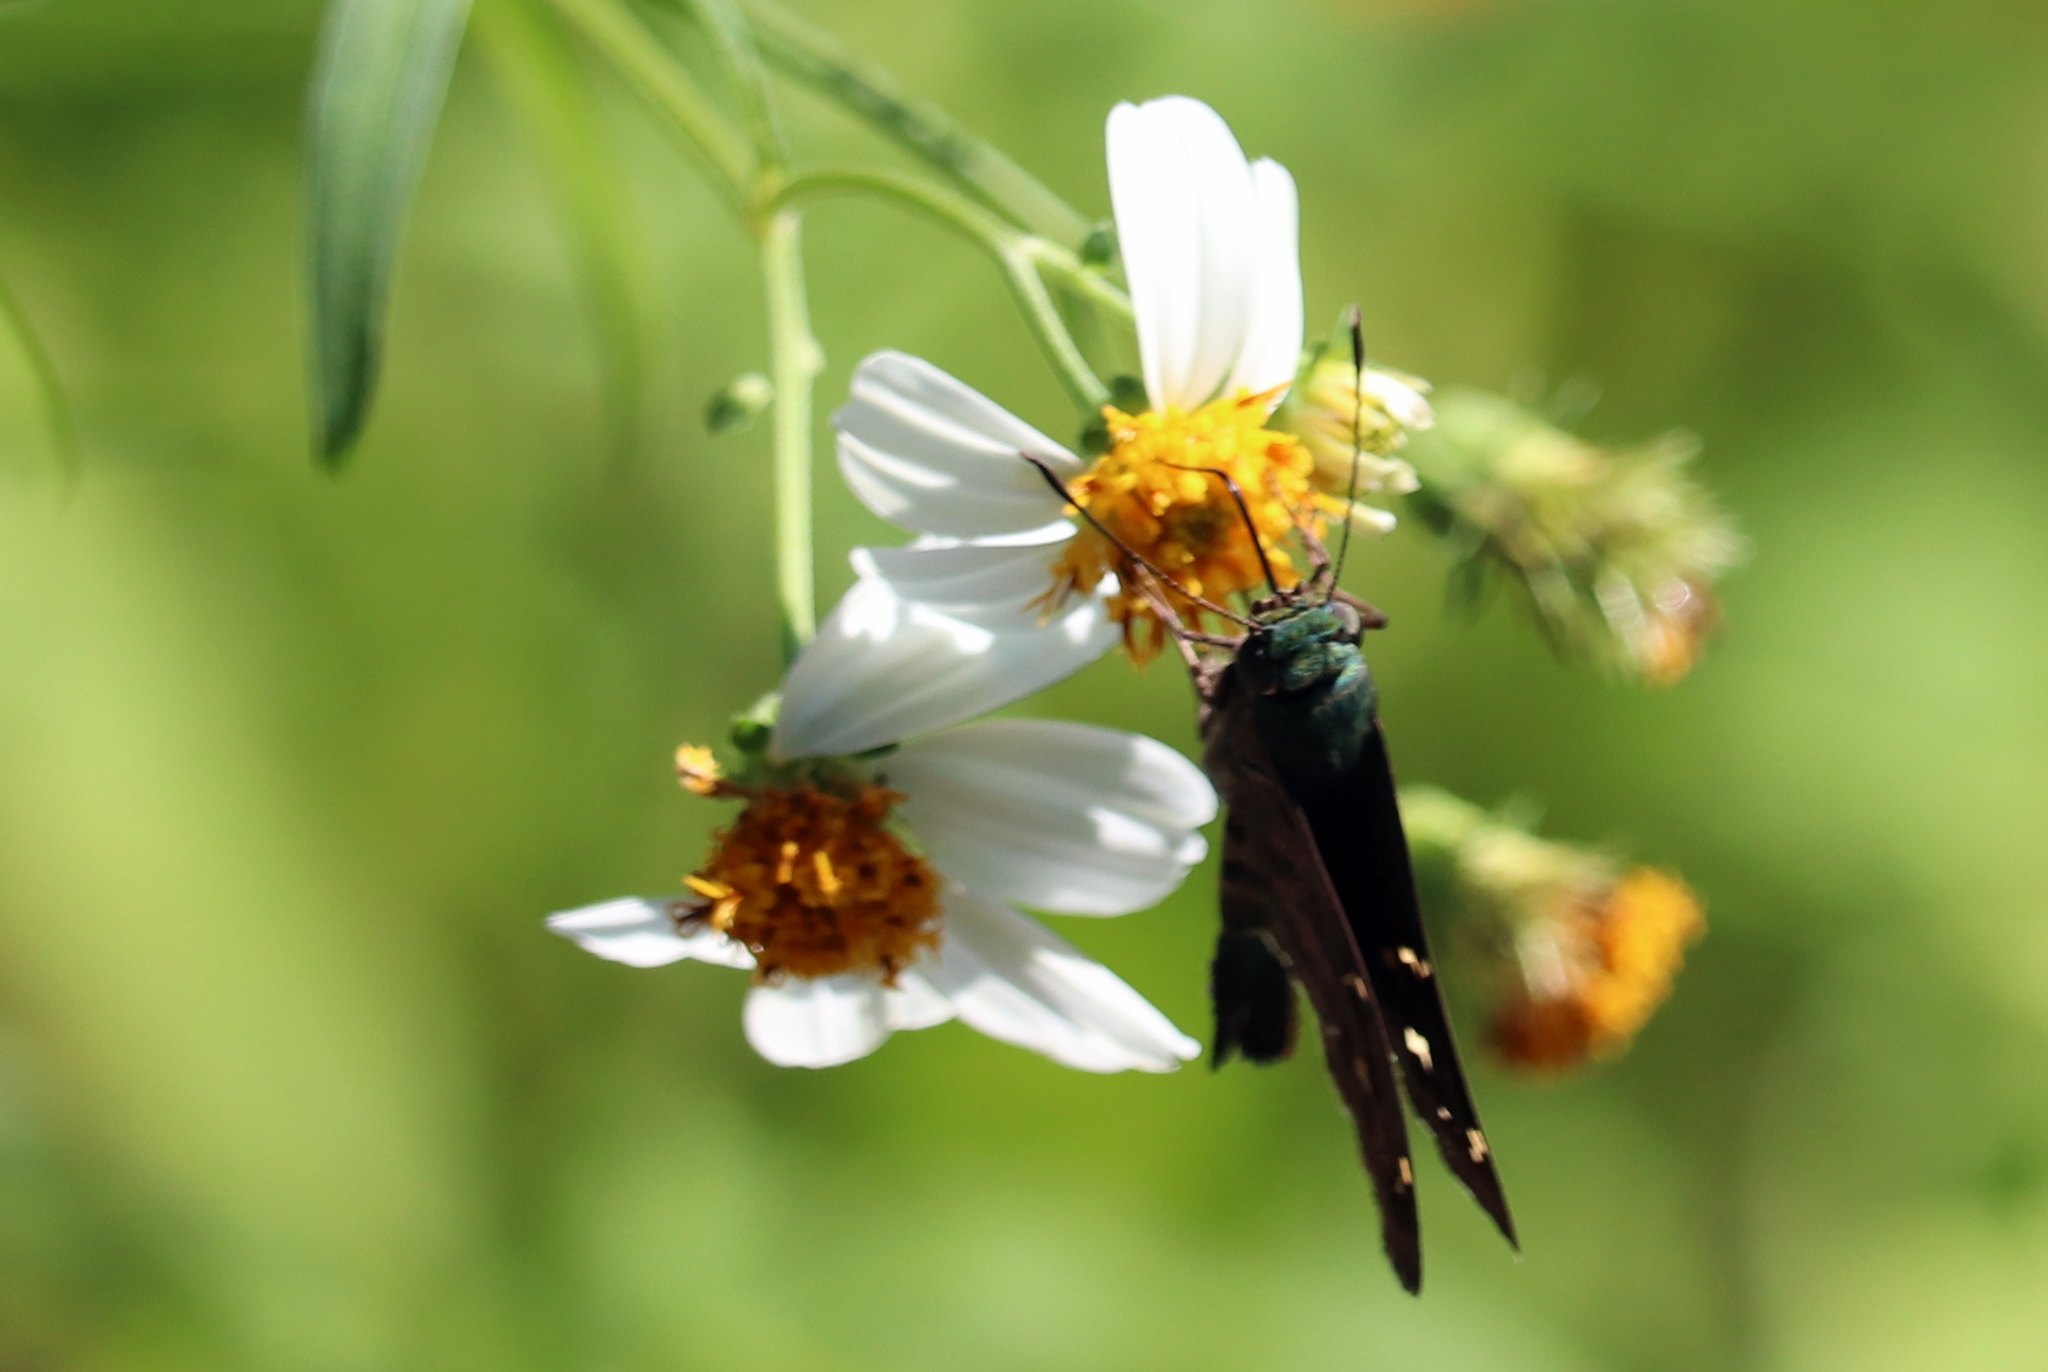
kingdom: Animalia
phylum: Arthropoda
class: Insecta
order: Lepidoptera
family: Hesperiidae
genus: Urbanus
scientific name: Urbanus proteus
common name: Long-tailed skipper
